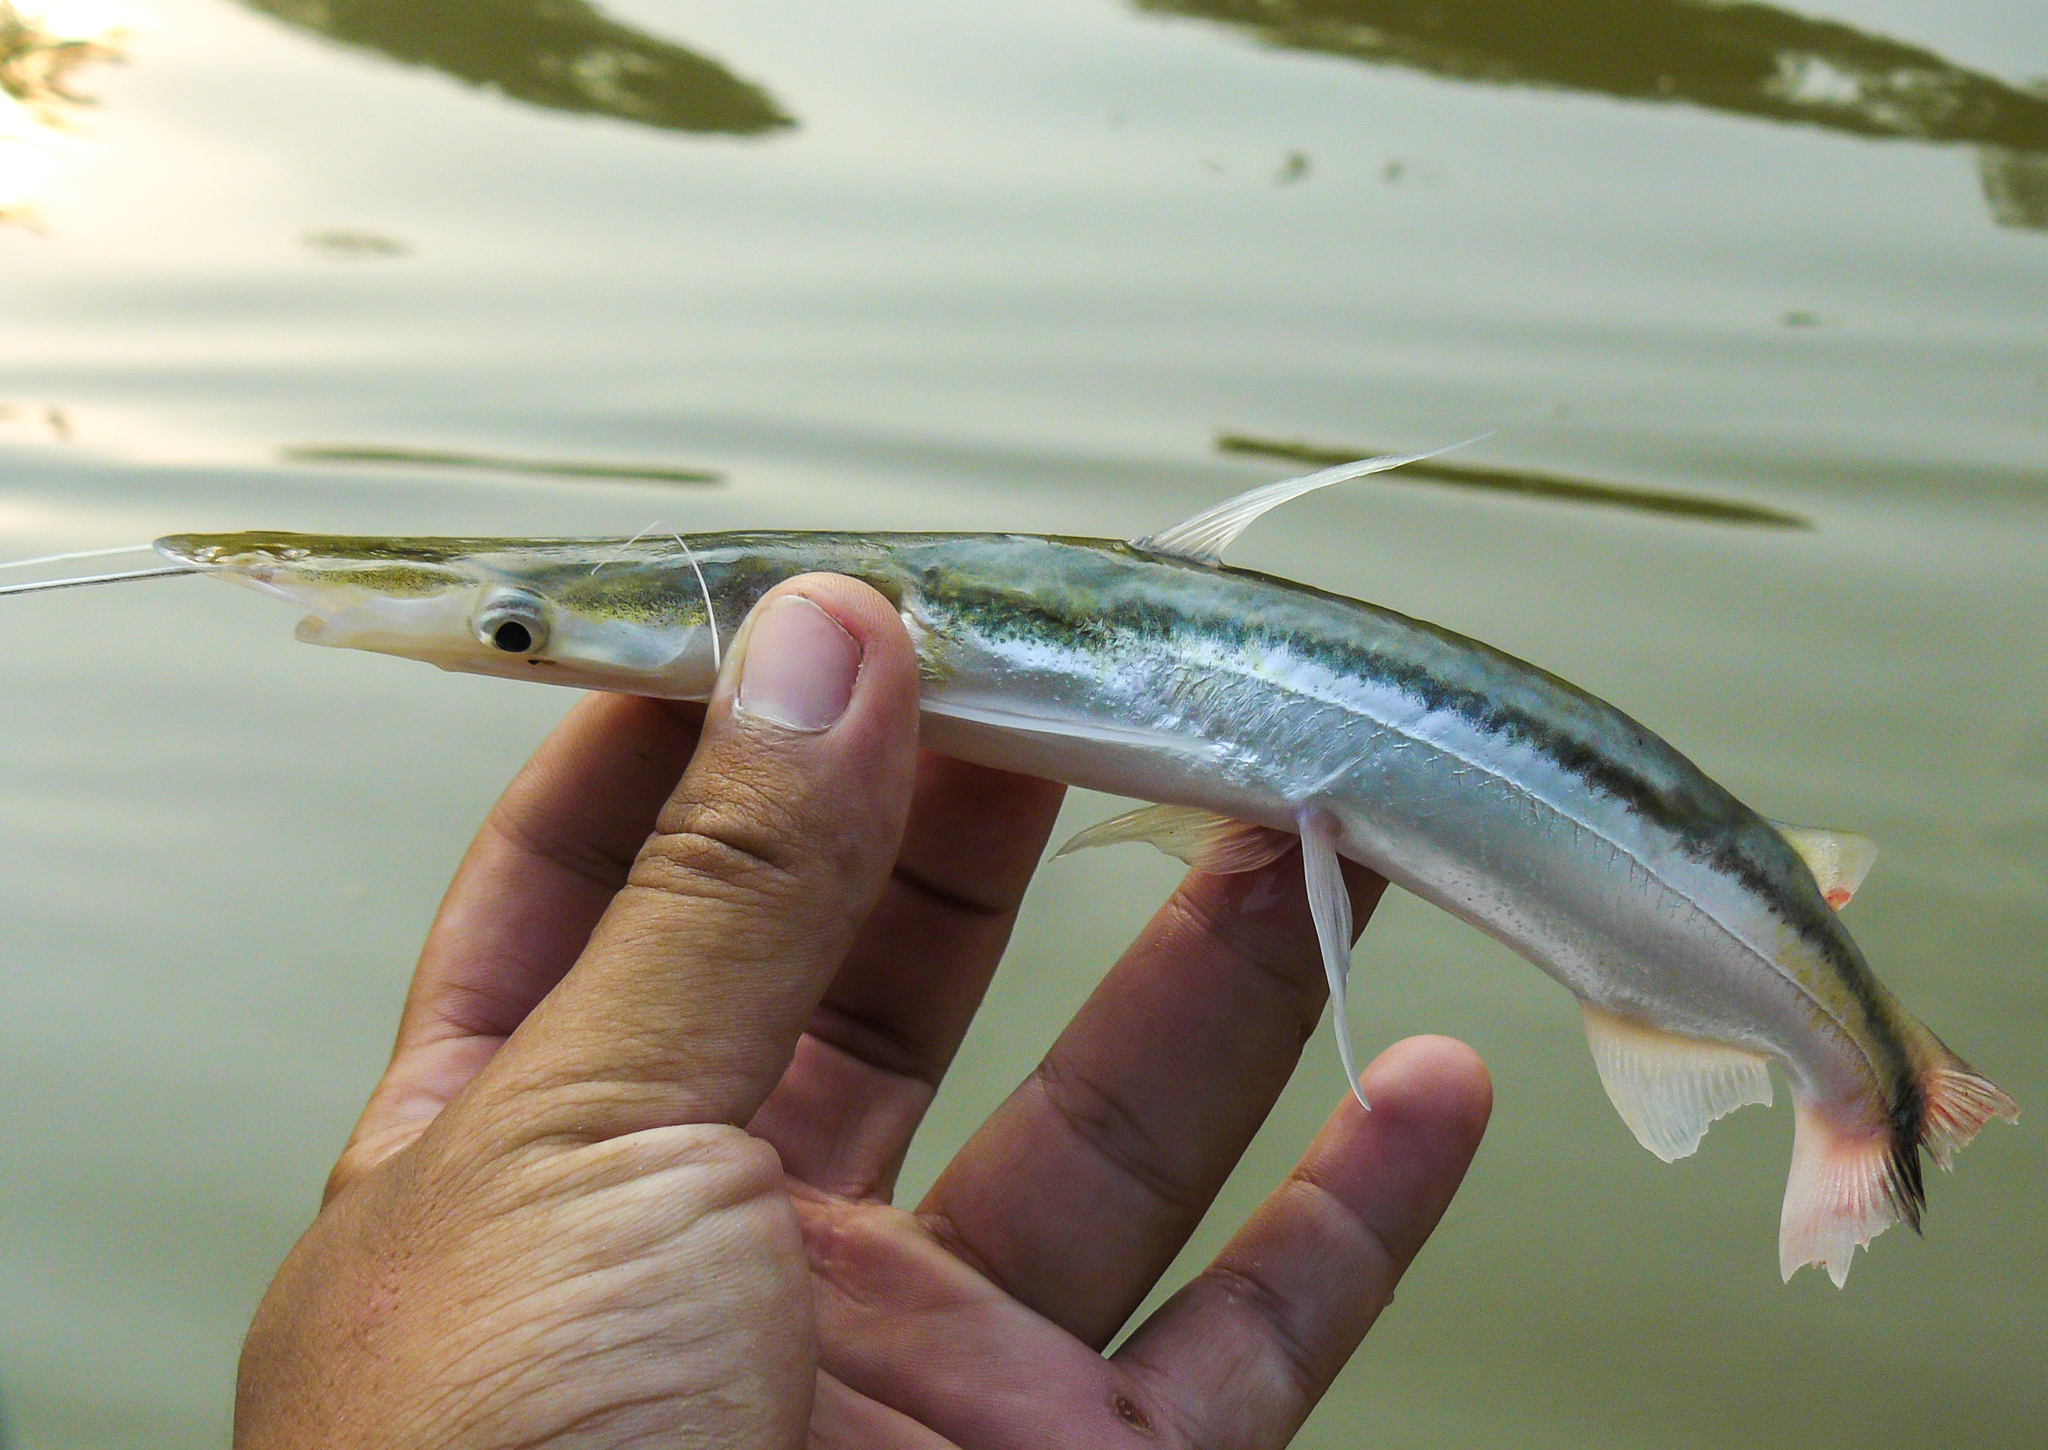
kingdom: Animalia
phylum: Chordata
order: Siluriformes
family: Pimelodidae
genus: Sorubim
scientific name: Sorubim lima
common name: Duckbill catfish
